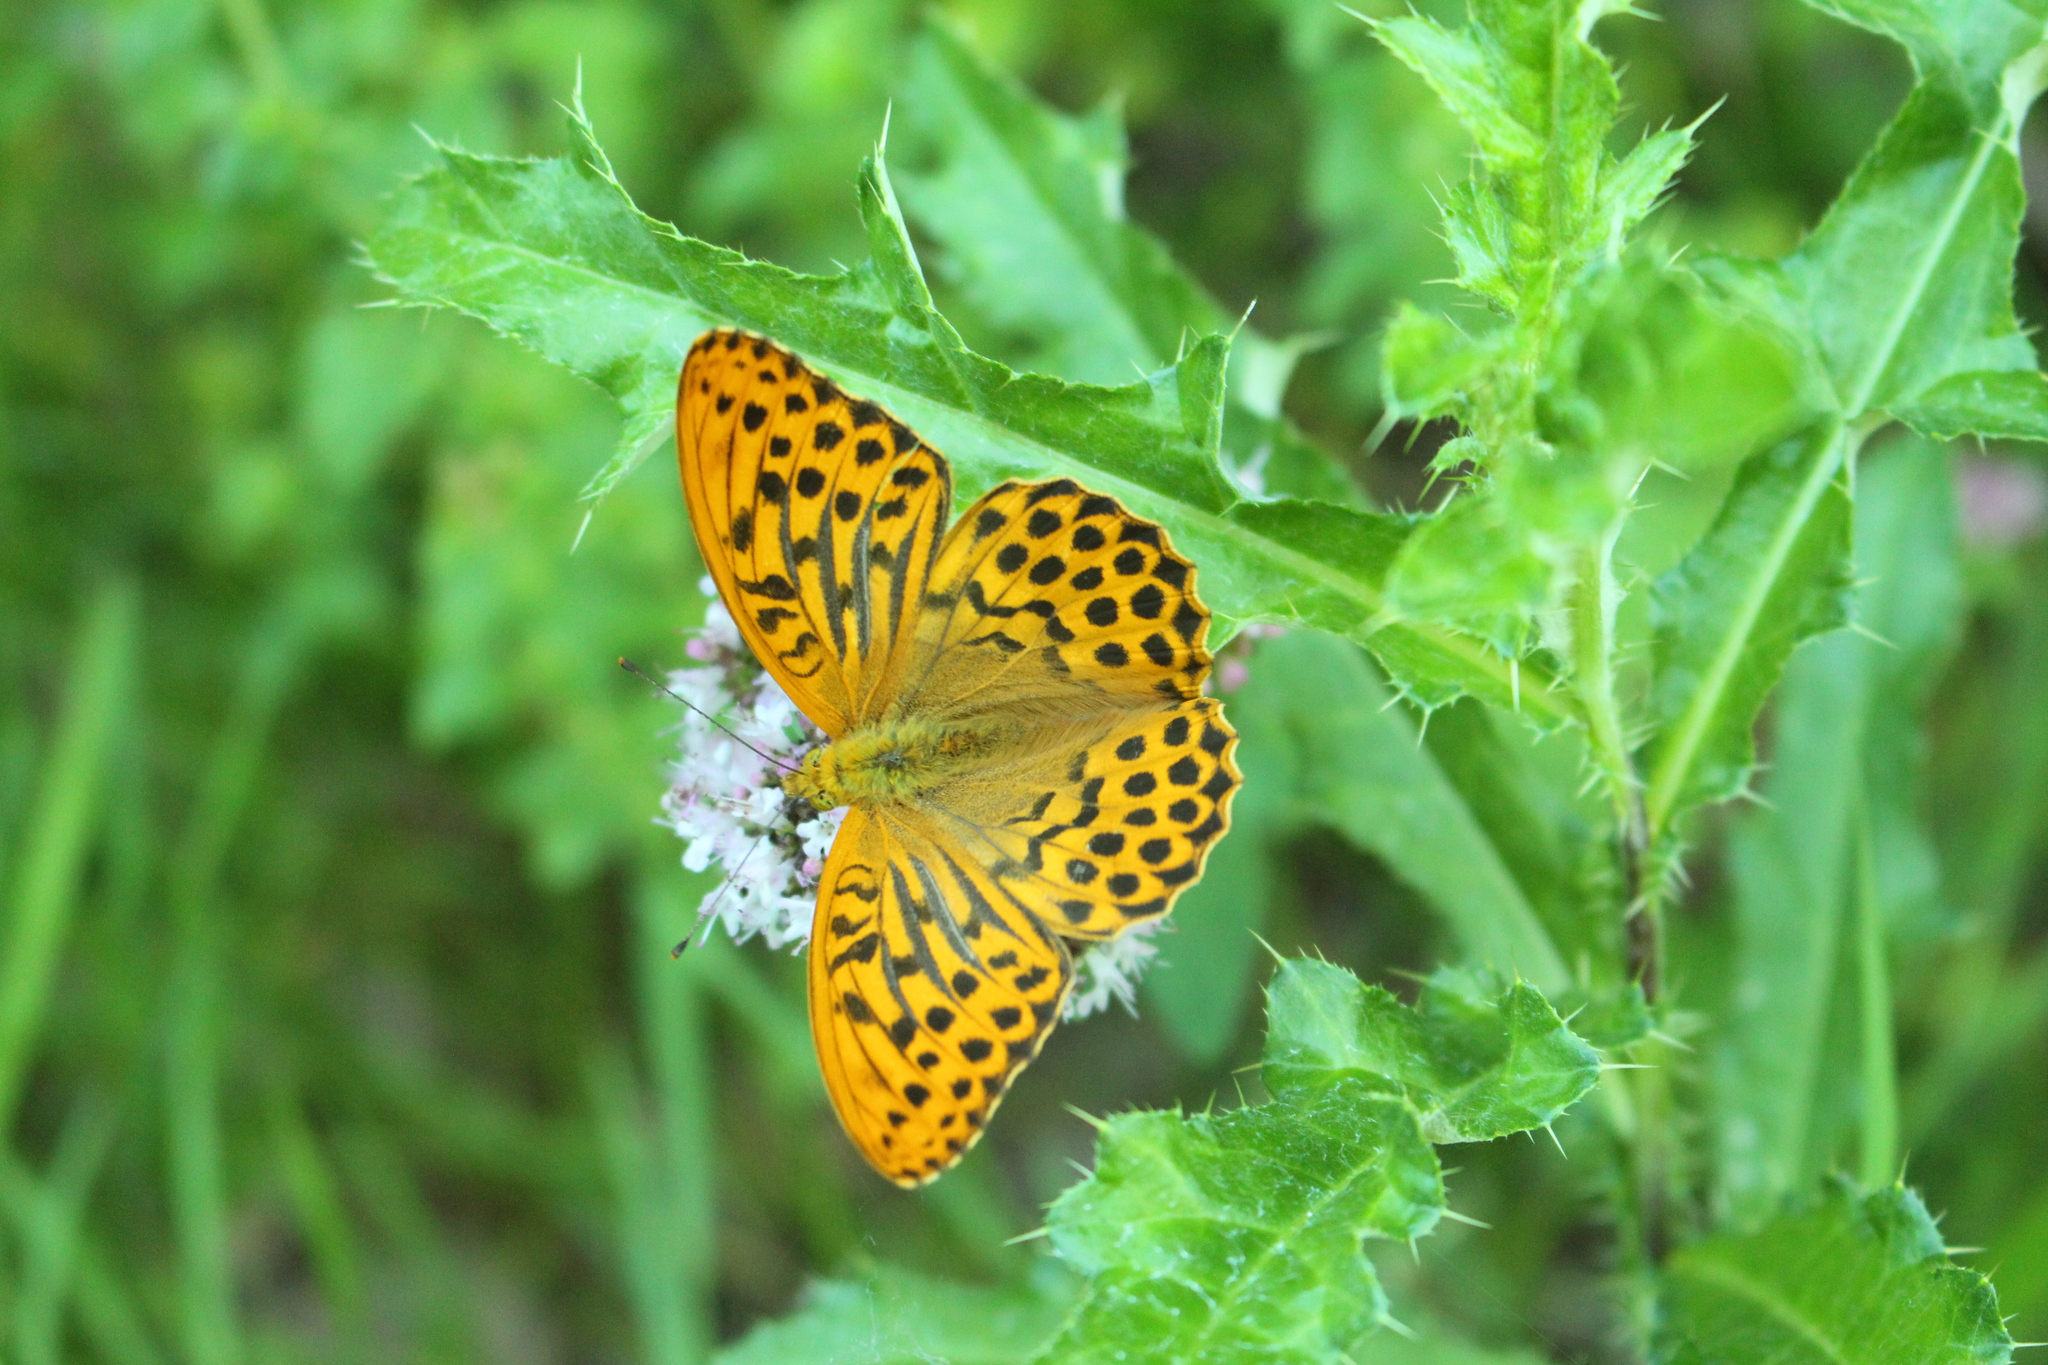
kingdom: Animalia
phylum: Arthropoda
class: Insecta
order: Lepidoptera
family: Nymphalidae
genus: Argynnis
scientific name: Argynnis paphia
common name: Silver-washed fritillary
